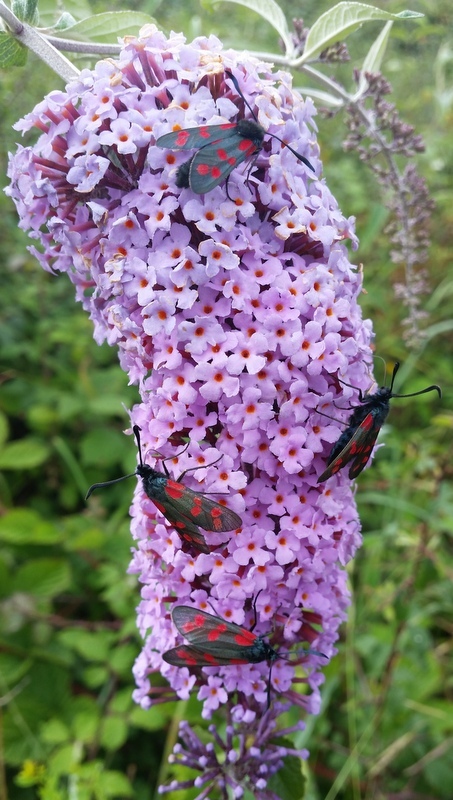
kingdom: Animalia
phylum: Arthropoda
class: Insecta
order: Lepidoptera
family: Zygaenidae
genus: Zygaena
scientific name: Zygaena filipendulae
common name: Six-spot burnet
